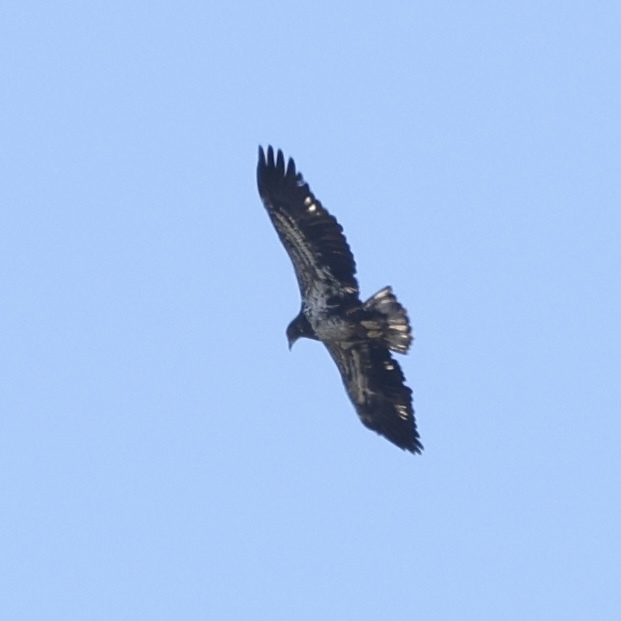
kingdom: Animalia
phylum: Chordata
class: Aves
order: Accipitriformes
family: Accipitridae
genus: Haliaeetus
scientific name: Haliaeetus leucocephalus
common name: Bald eagle
